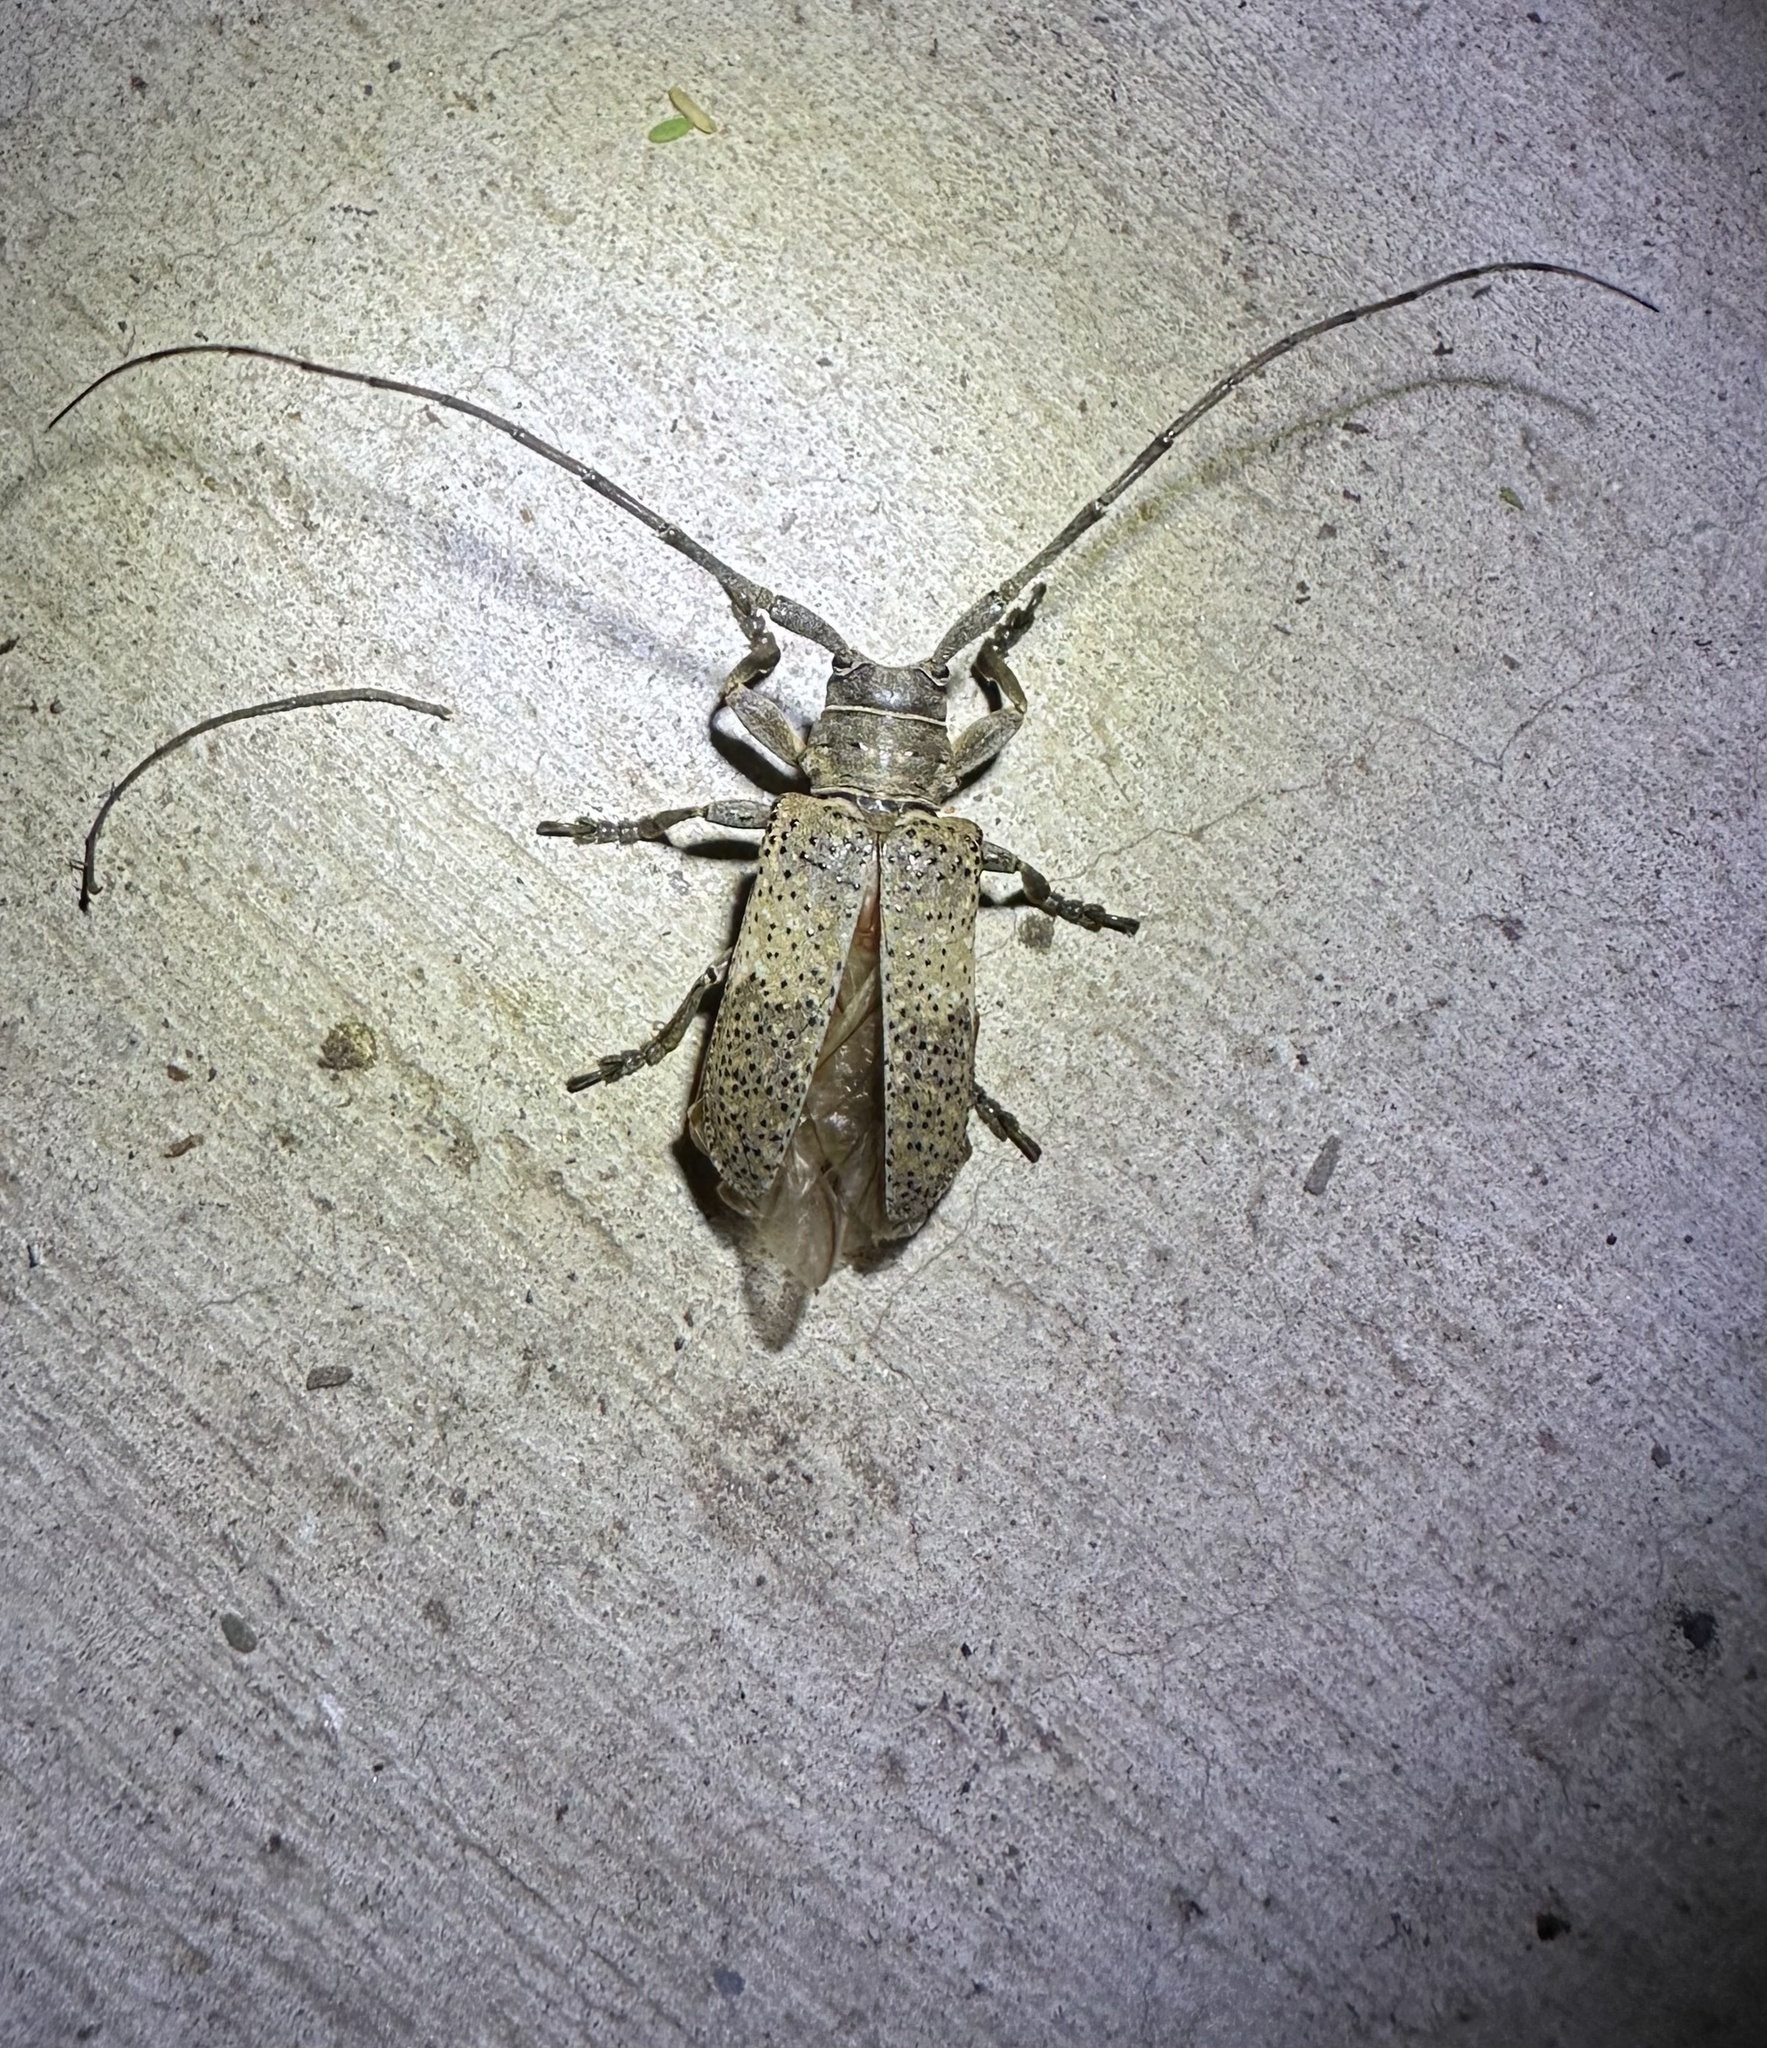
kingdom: Animalia
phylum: Arthropoda
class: Insecta
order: Coleoptera
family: Cerambycidae
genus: Oncideres
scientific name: Oncideres pustulata
